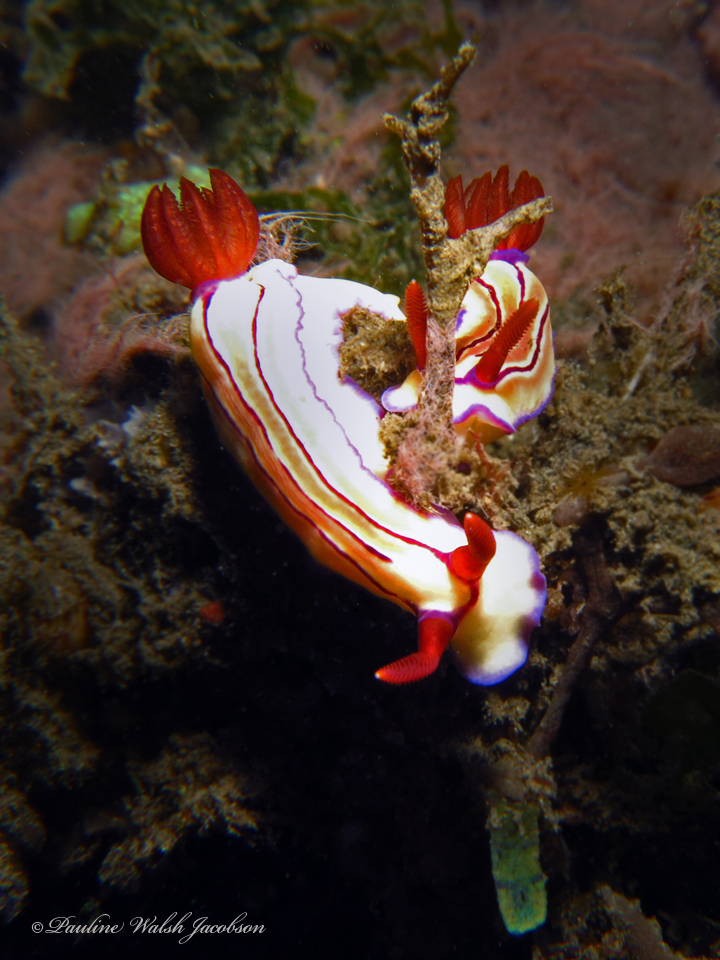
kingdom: Animalia
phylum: Mollusca
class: Gastropoda
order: Nudibranchia
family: Chromodorididae
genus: Hypselodoris
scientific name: Hypselodoris emma
